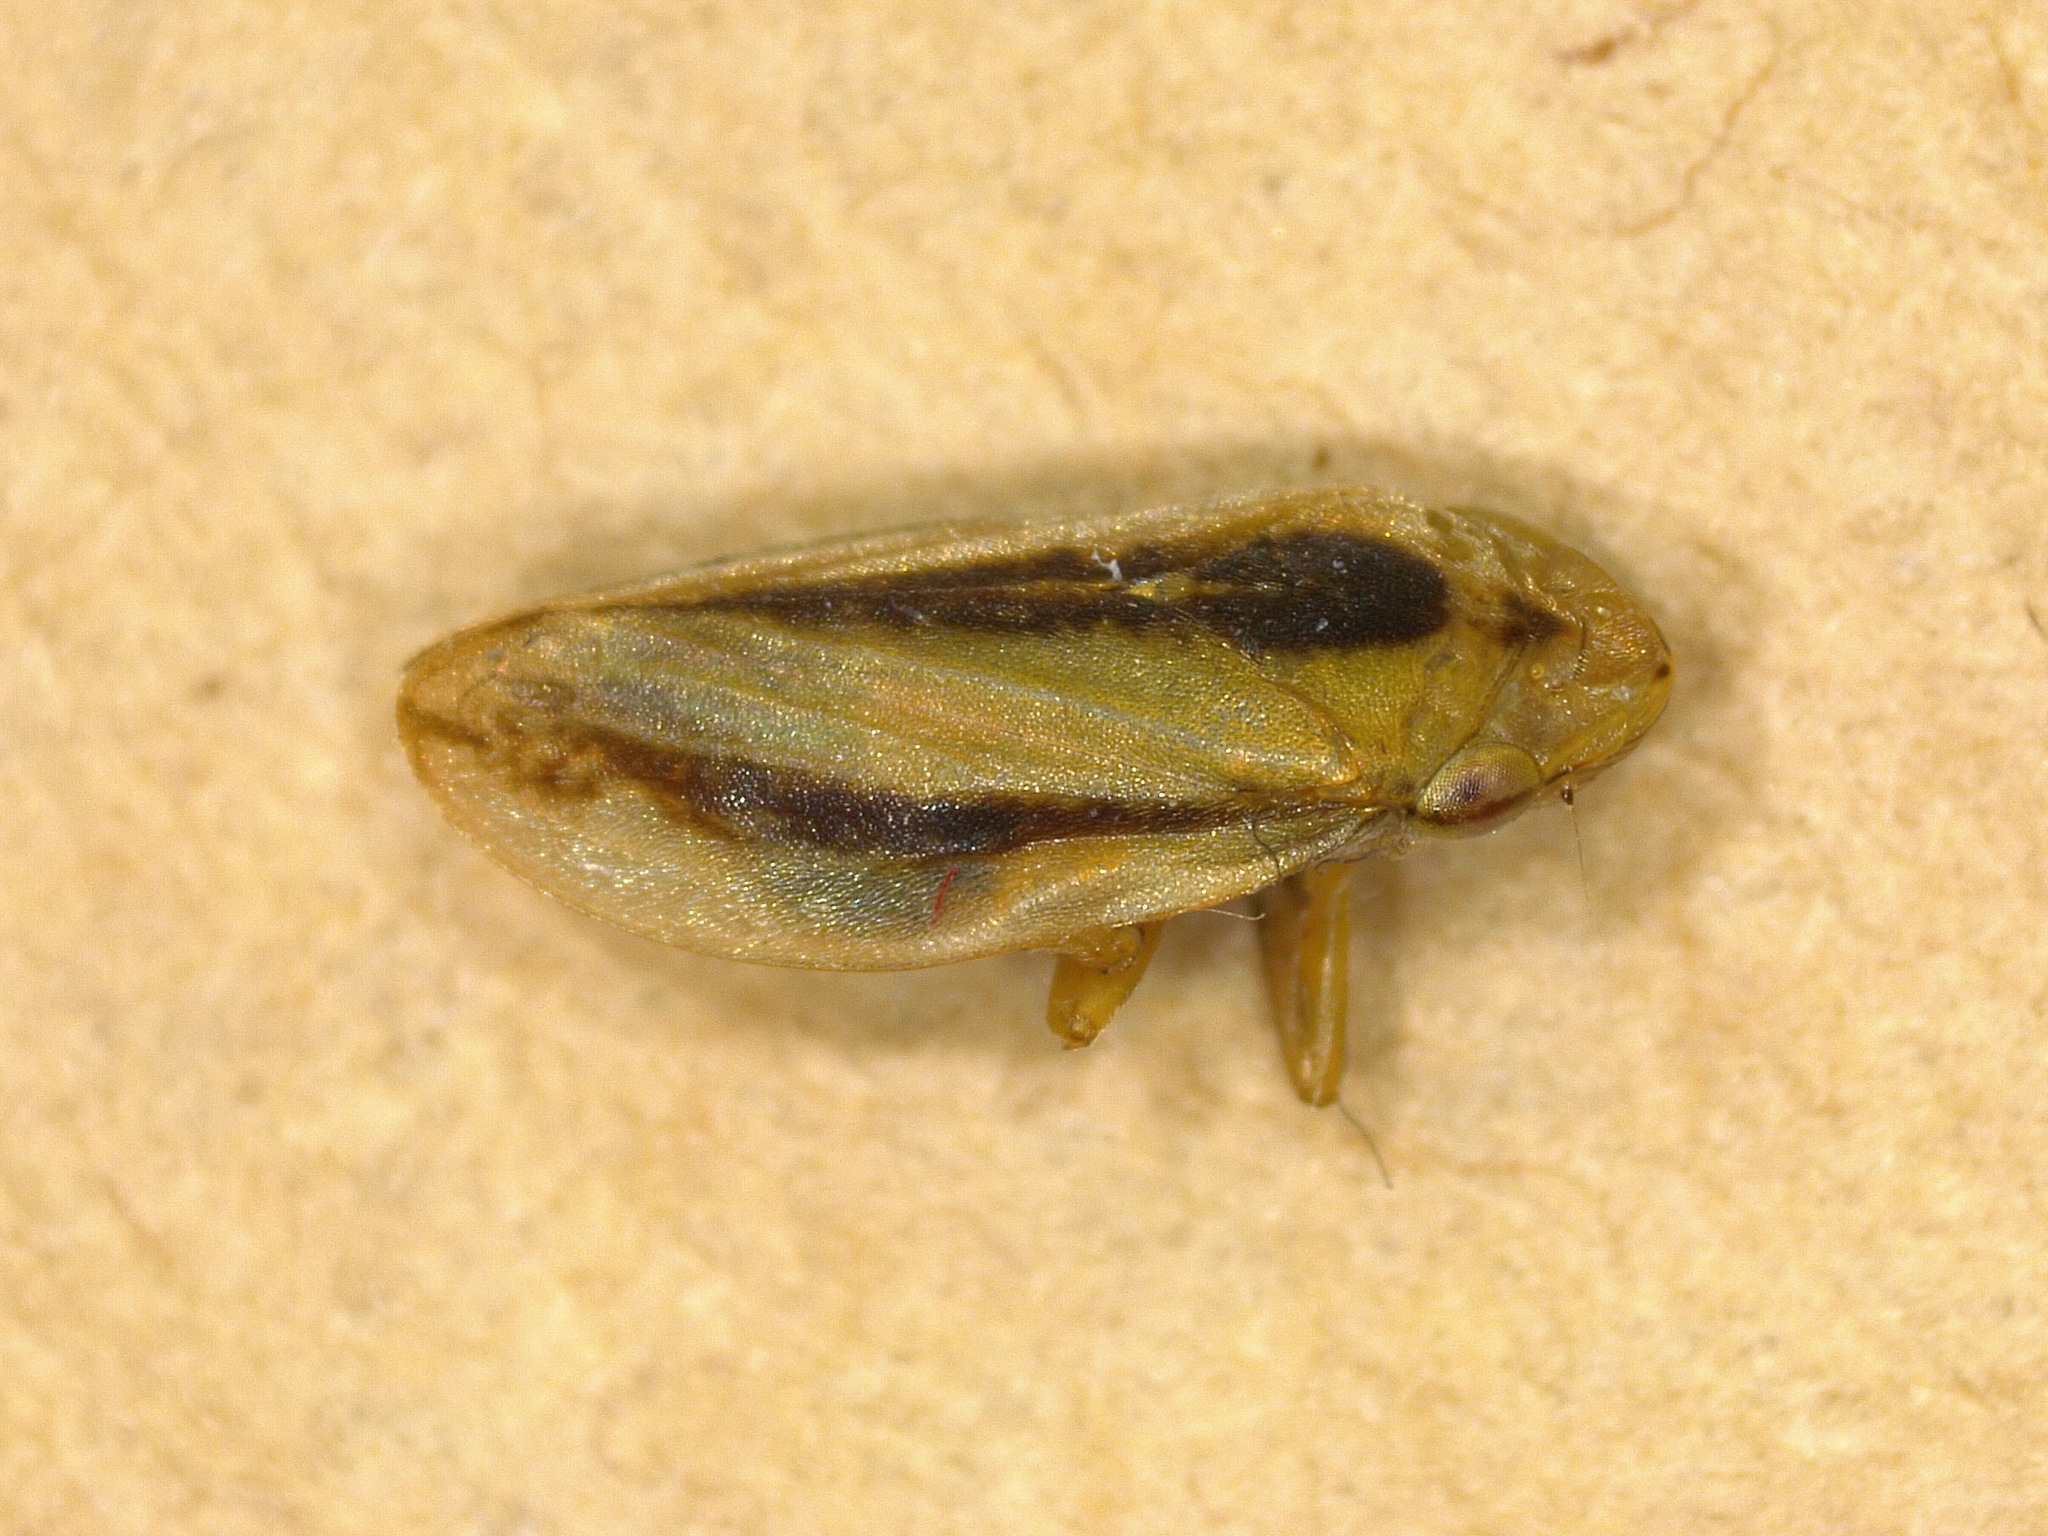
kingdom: Animalia
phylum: Arthropoda
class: Insecta
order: Hemiptera
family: Aphrophoridae
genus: Philaenus
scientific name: Philaenus spumarius
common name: Meadow spittlebug
